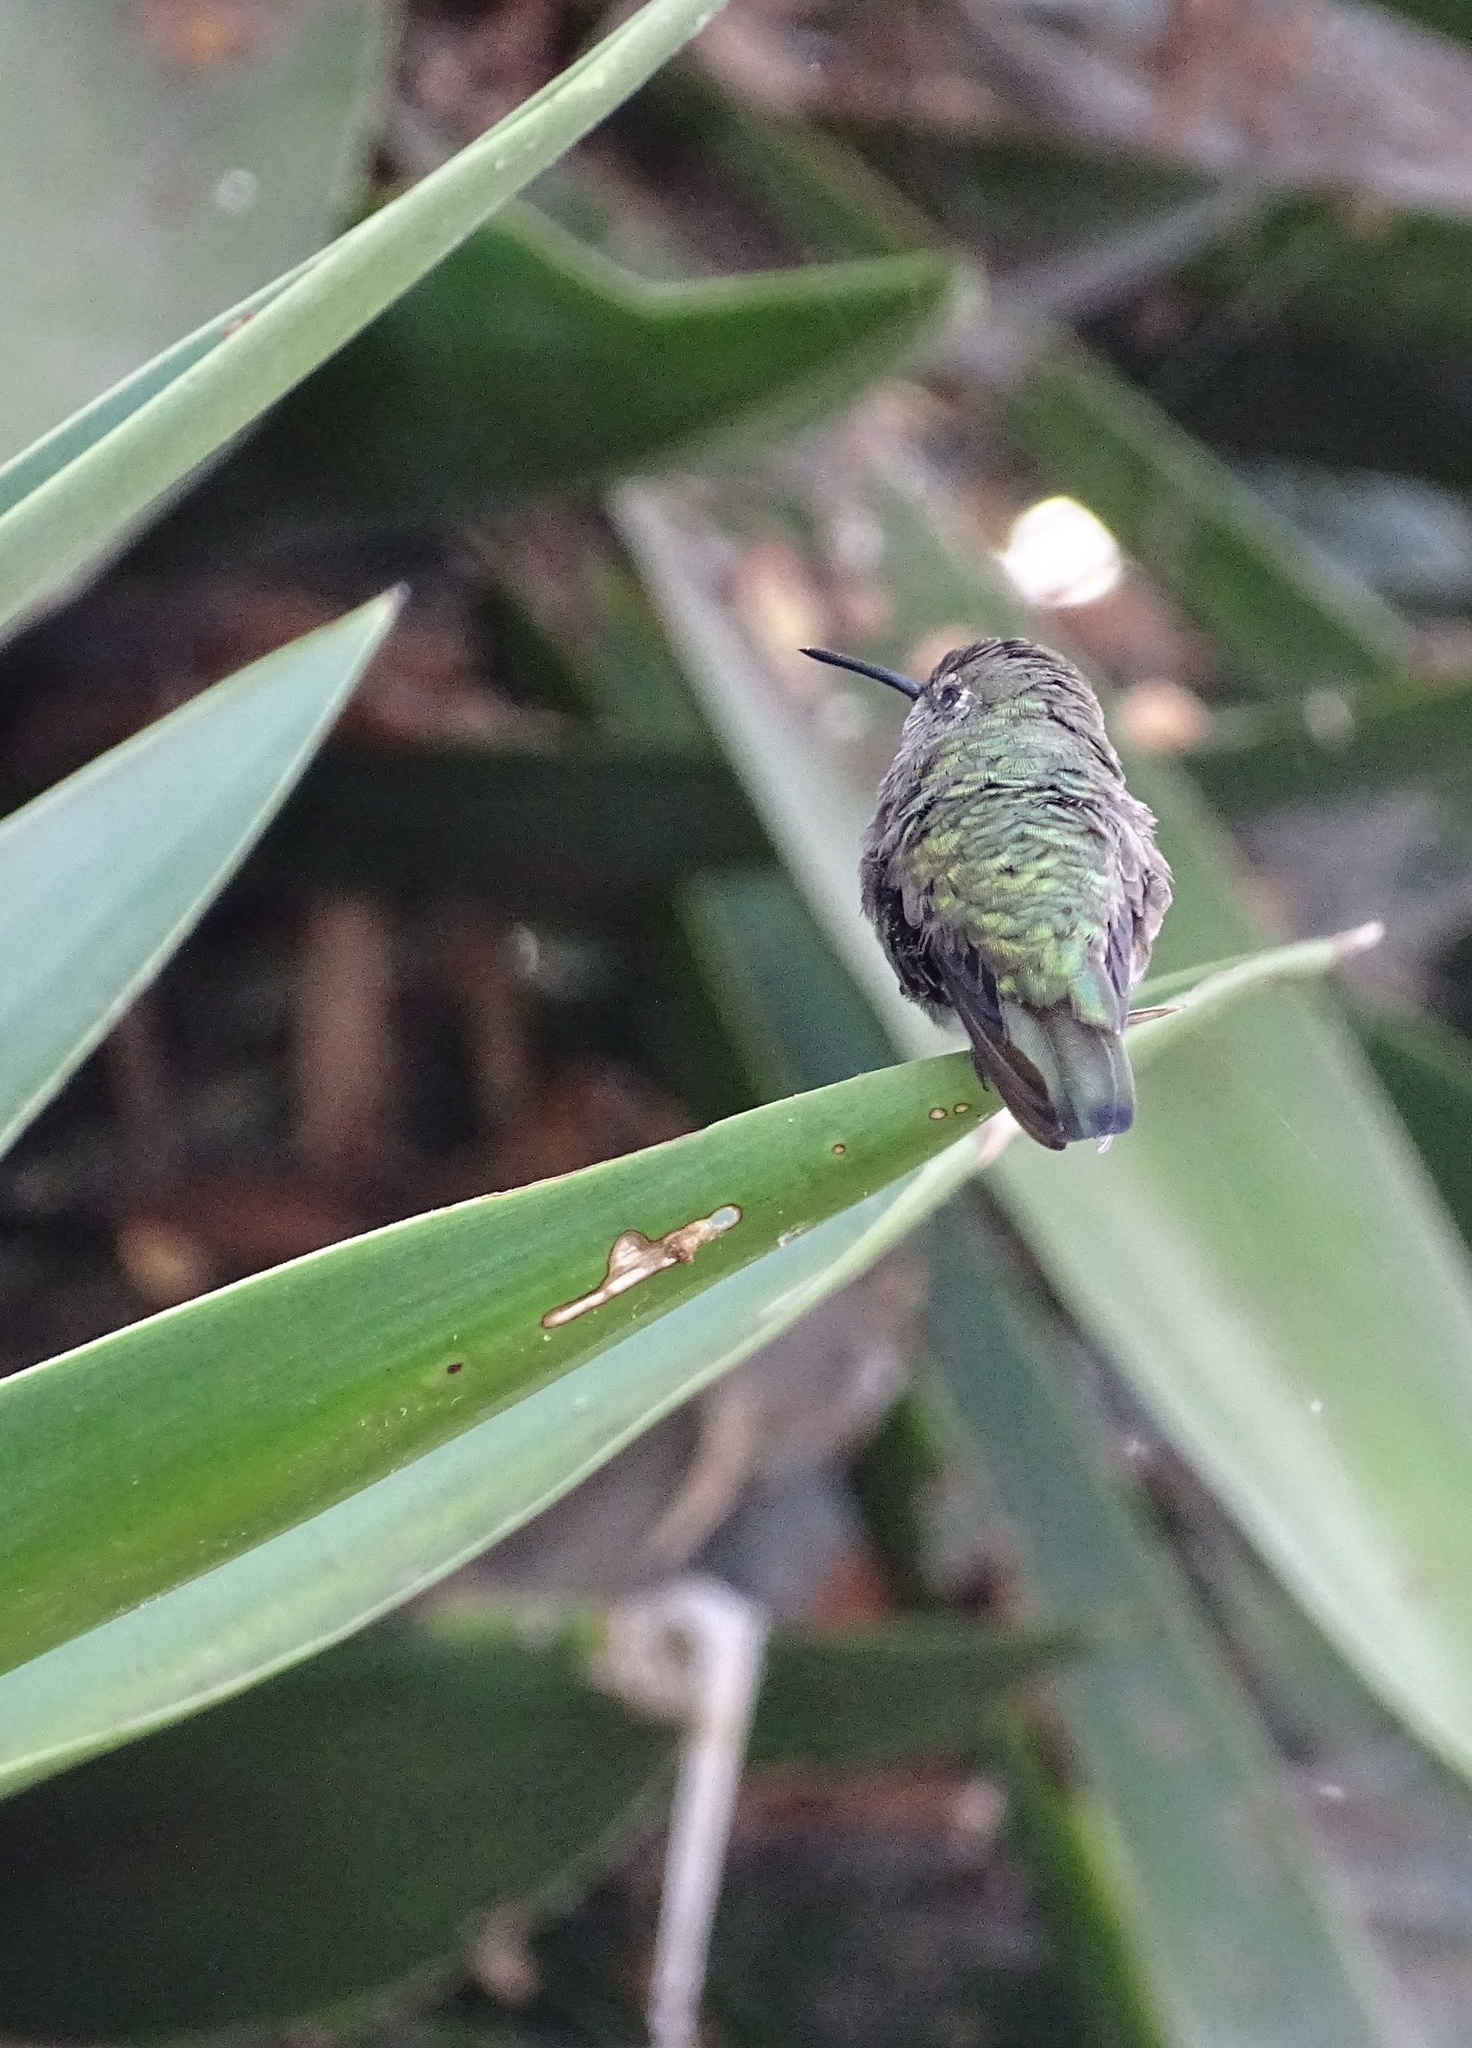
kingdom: Animalia
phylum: Chordata
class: Aves
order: Apodiformes
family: Trochilidae
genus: Calypte
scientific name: Calypte anna
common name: Anna's hummingbird
